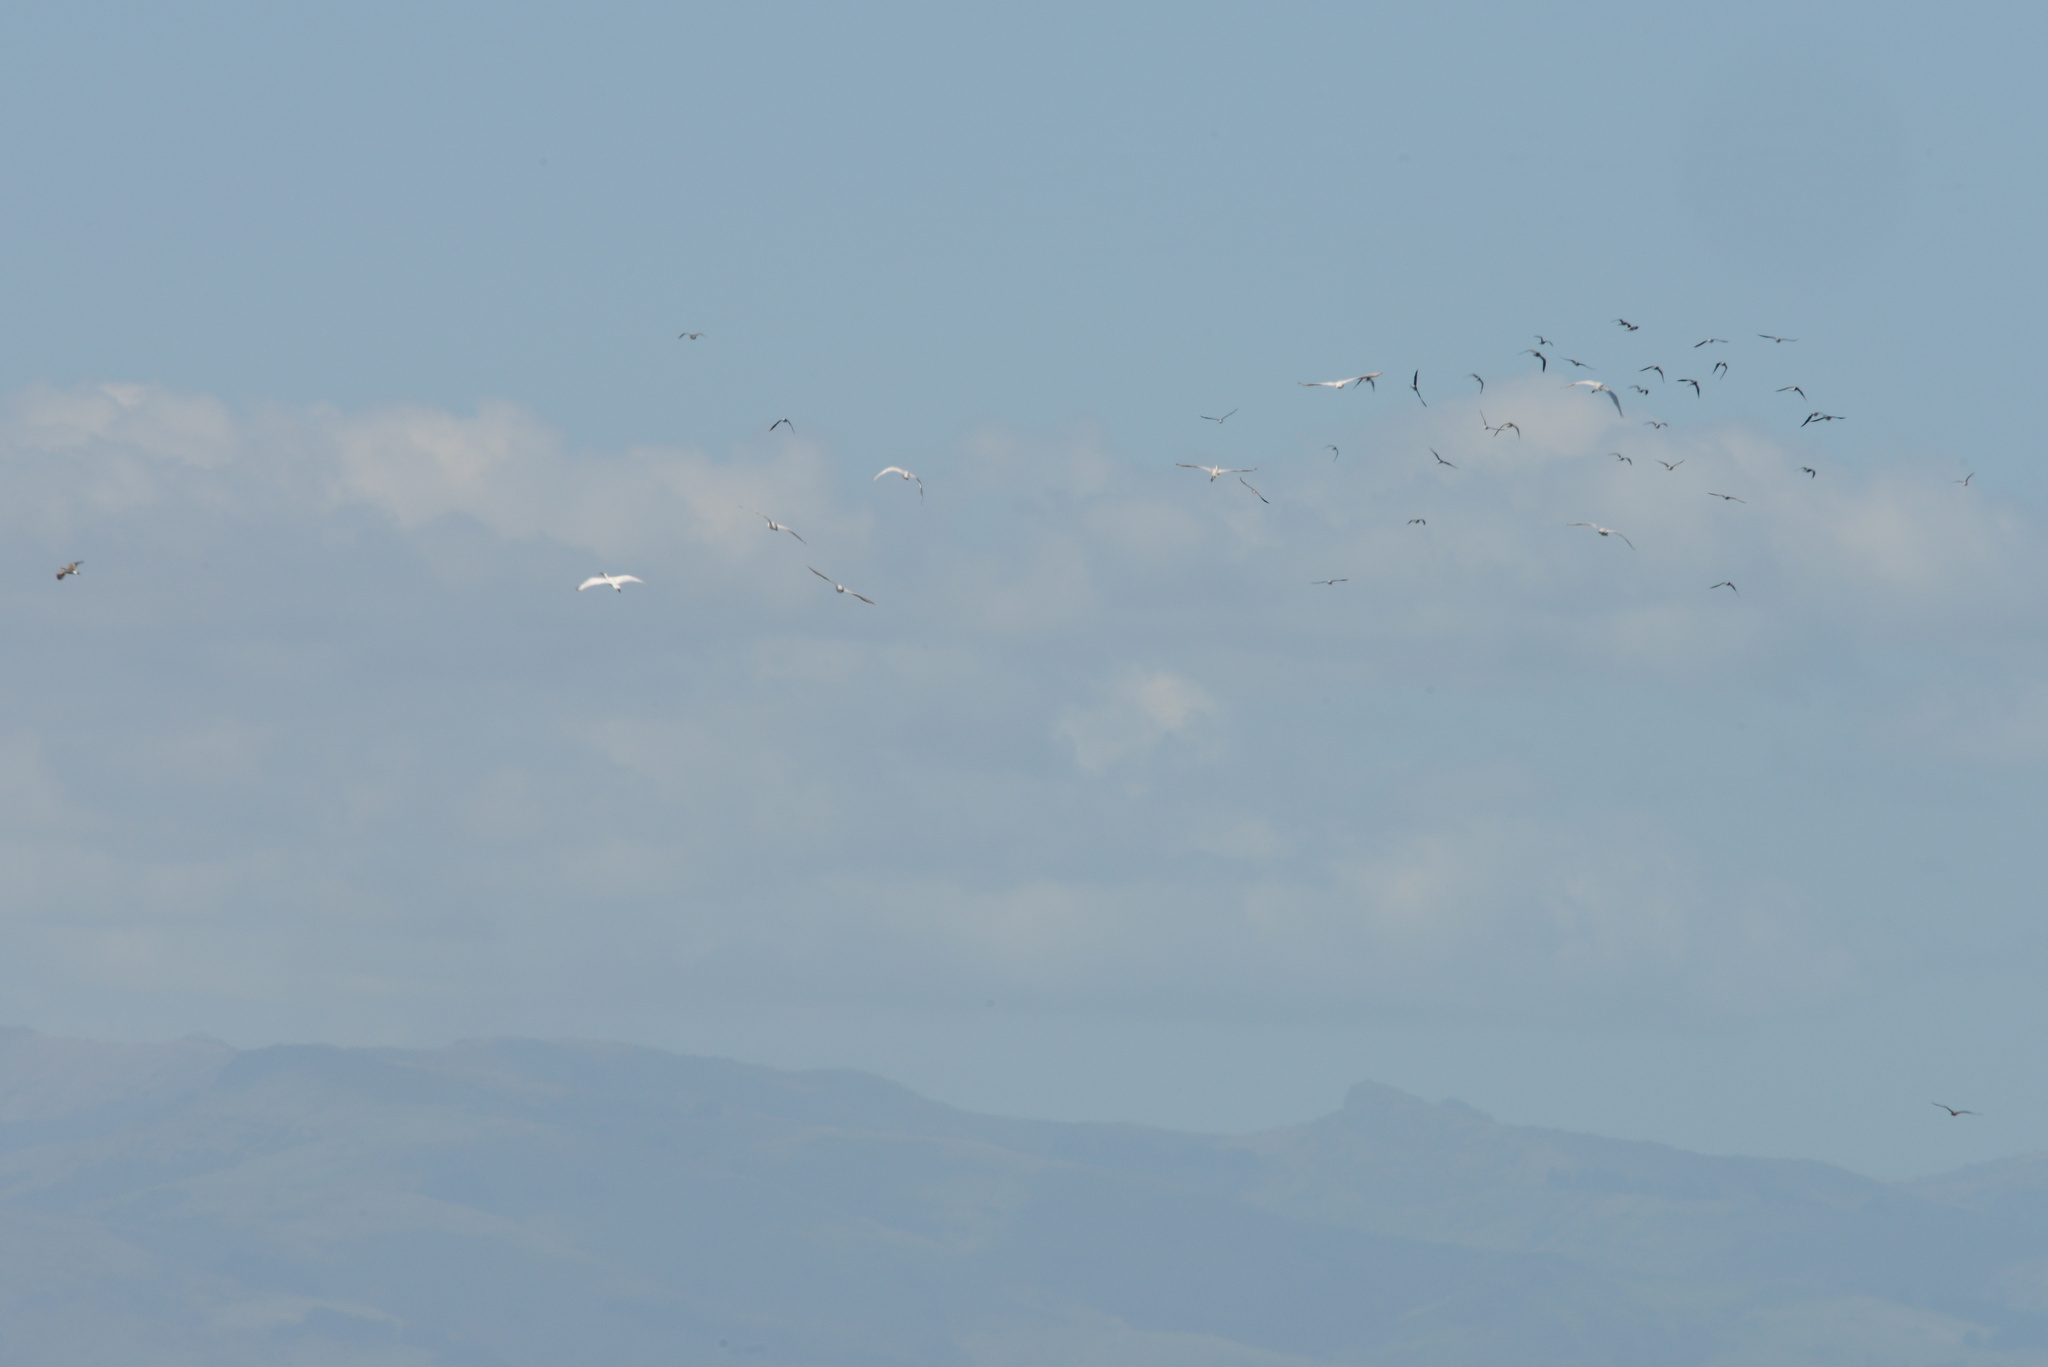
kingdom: Animalia
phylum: Chordata
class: Aves
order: Charadriiformes
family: Recurvirostridae
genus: Himantopus
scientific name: Himantopus leucocephalus
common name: White-headed stilt
